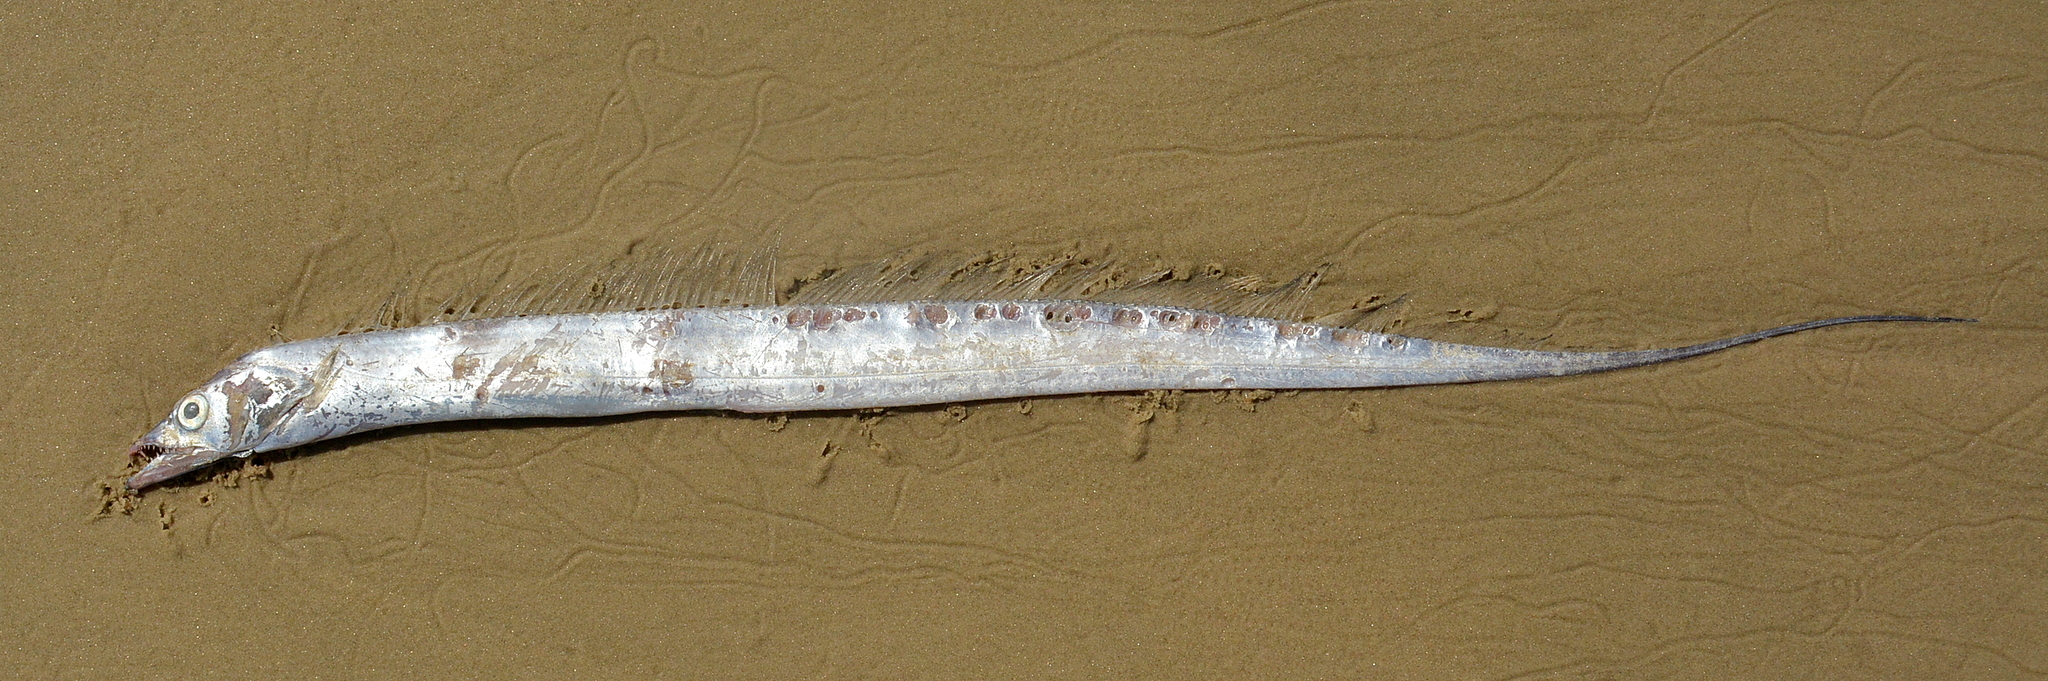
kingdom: Animalia
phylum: Chordata
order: Perciformes
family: Trichiuridae
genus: Trichiurus
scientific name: Trichiurus lepturus
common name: Largehead hairtail
